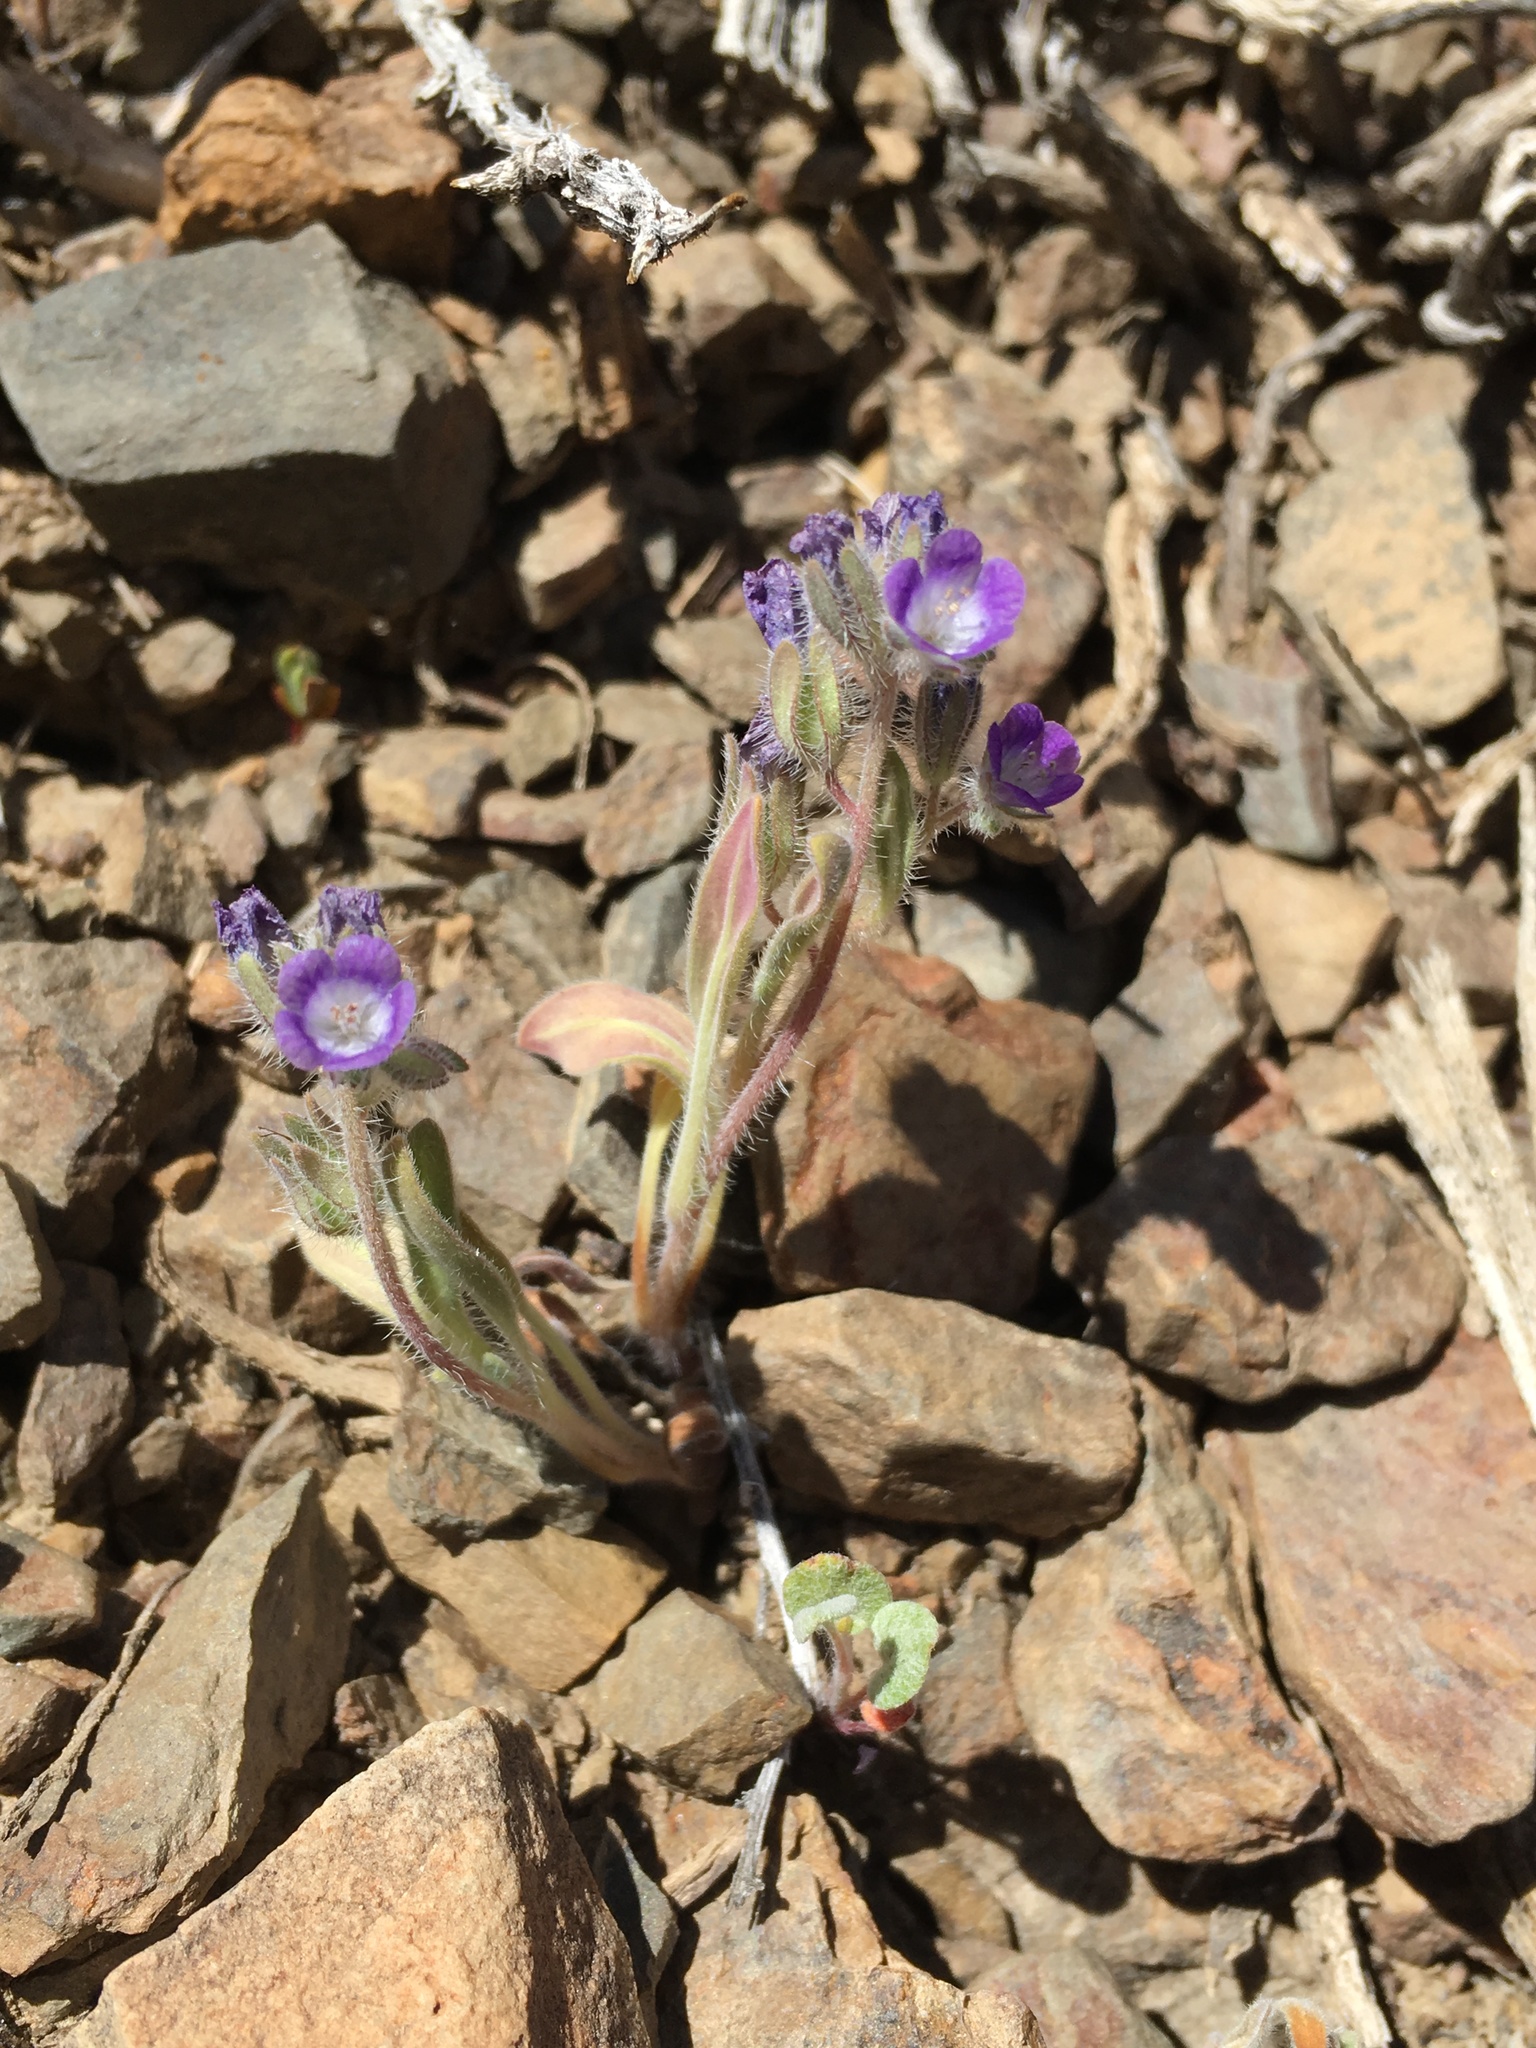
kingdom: Plantae
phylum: Tracheophyta
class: Magnoliopsida
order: Boraginales
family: Hydrophyllaceae
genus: Phacelia
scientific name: Phacelia curvipes
